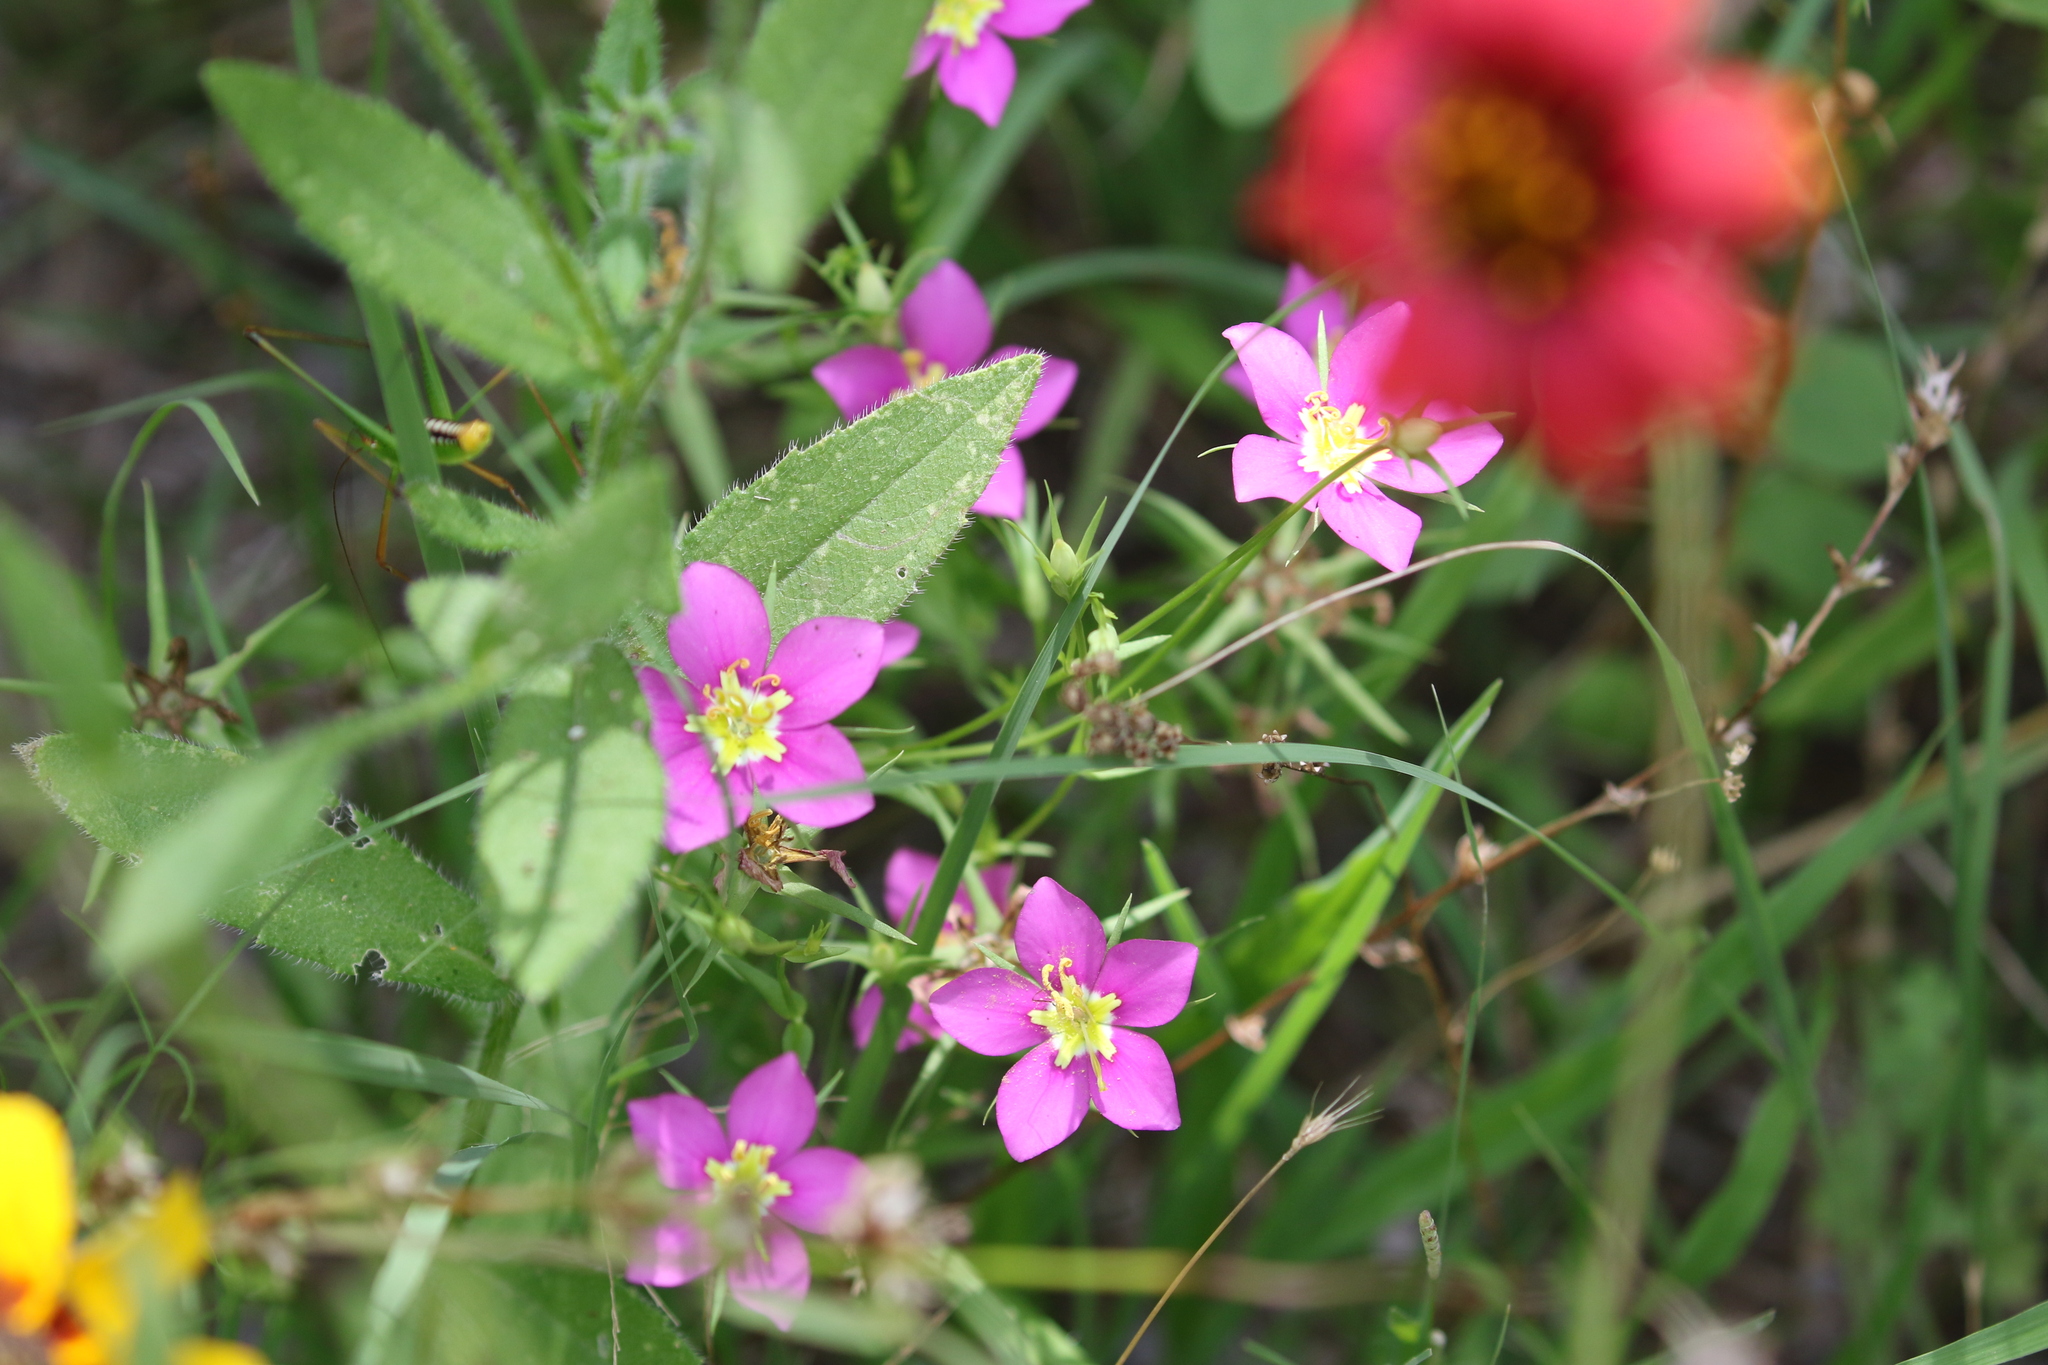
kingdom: Plantae
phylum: Tracheophyta
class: Magnoliopsida
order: Gentianales
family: Gentianaceae
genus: Sabatia
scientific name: Sabatia campestris
